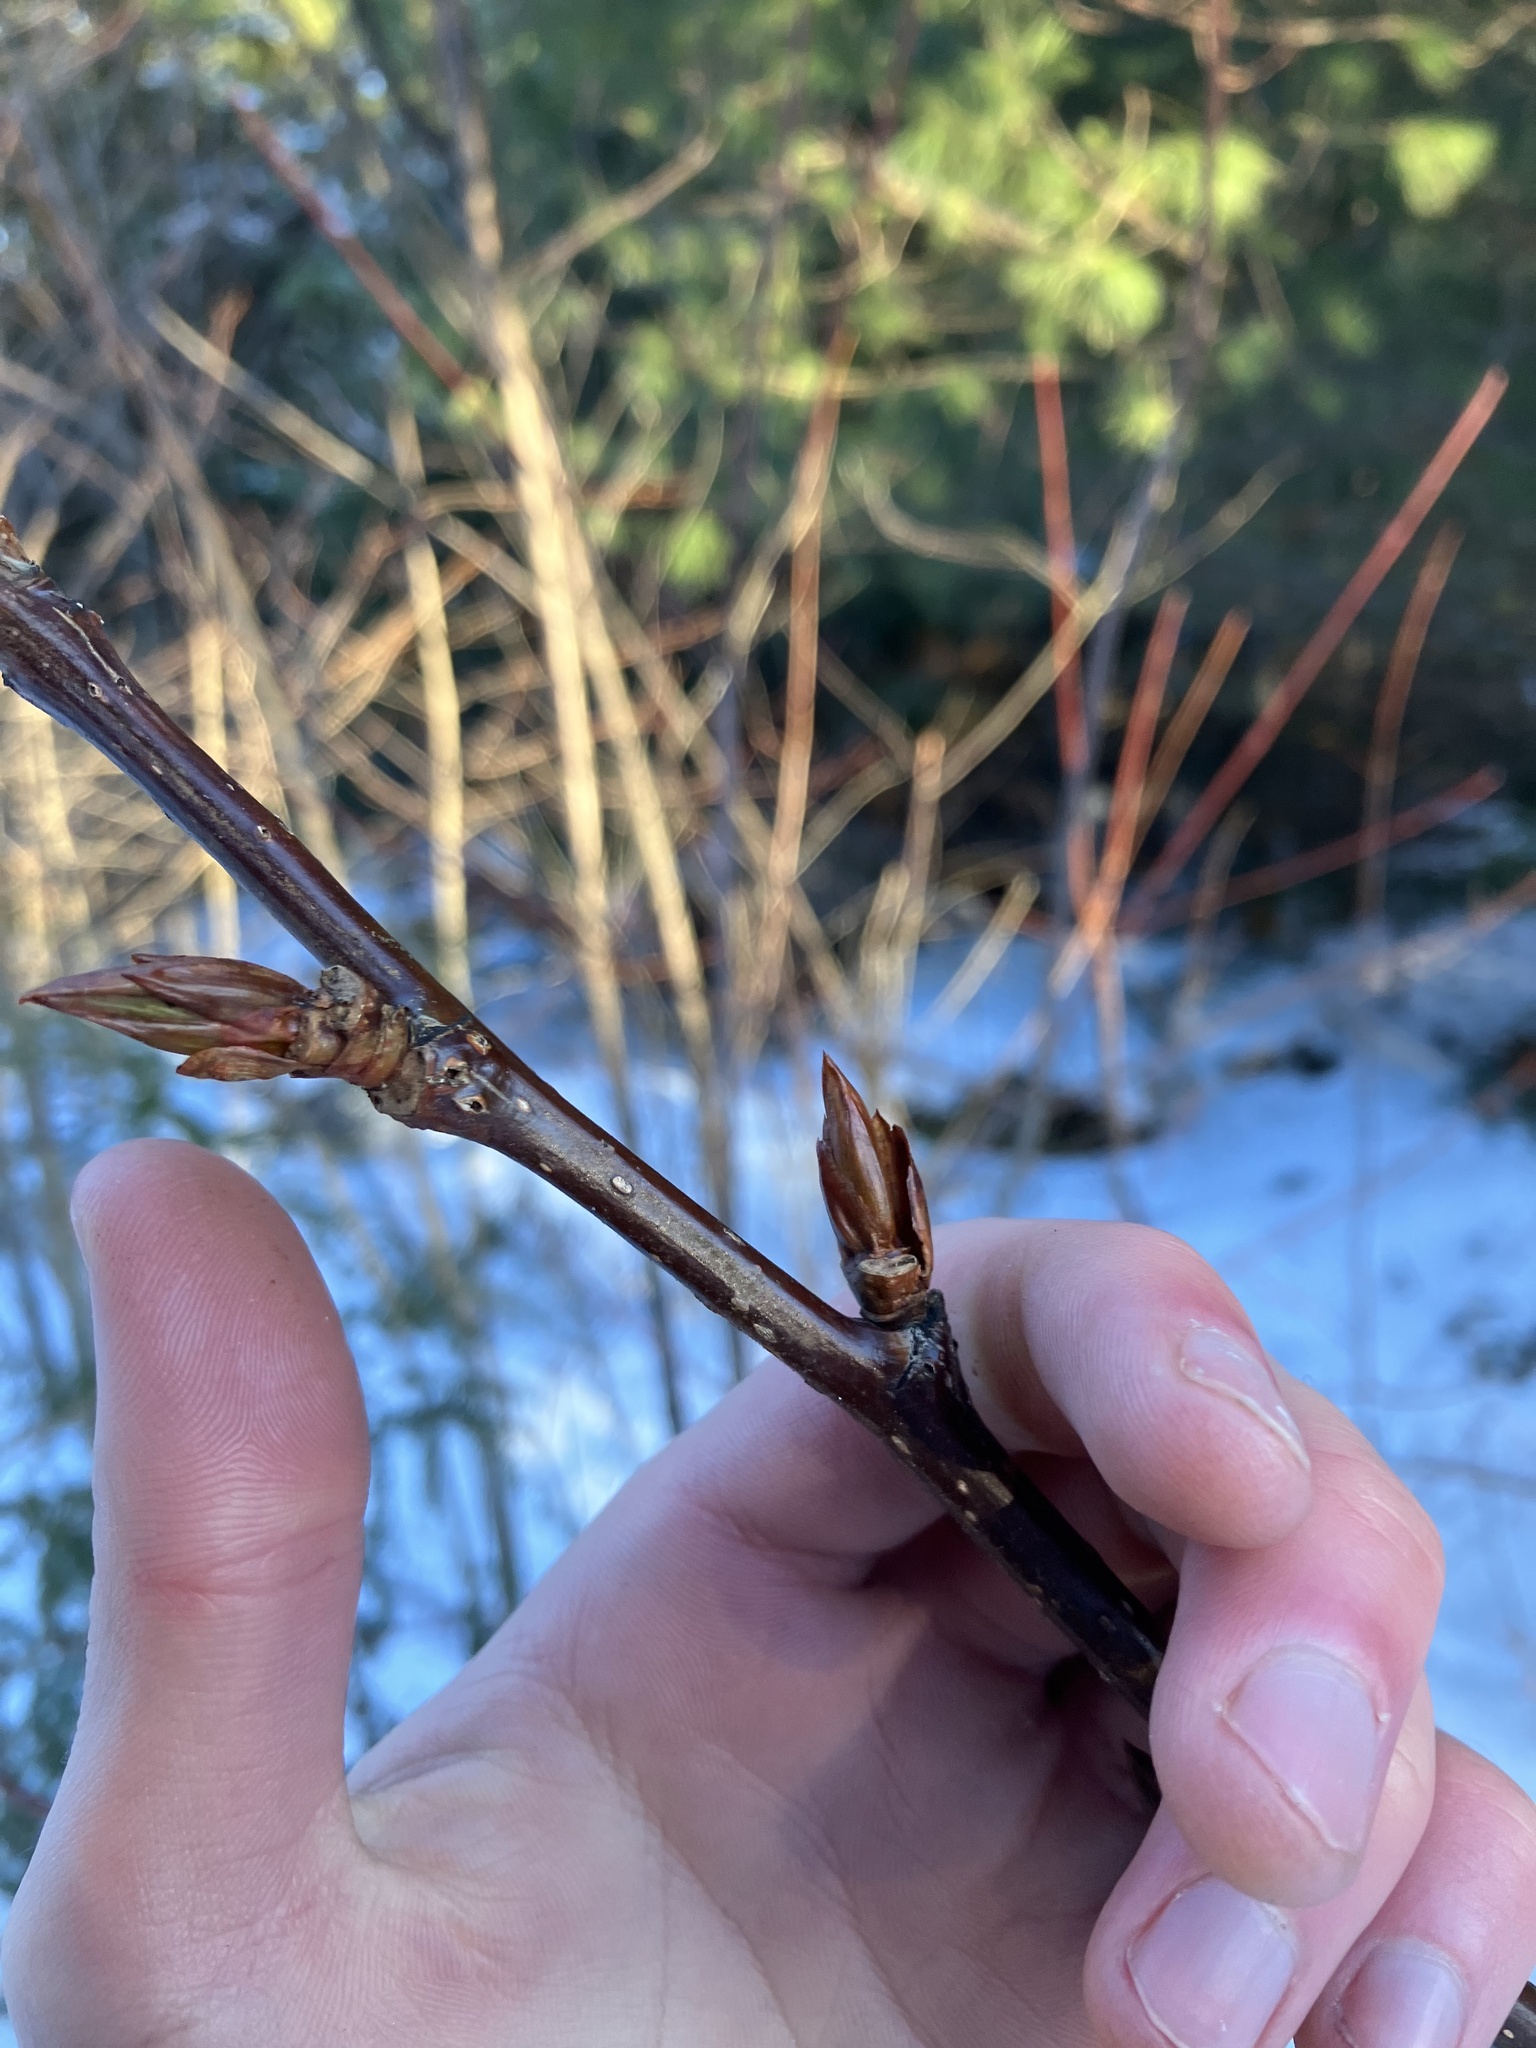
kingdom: Plantae
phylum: Tracheophyta
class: Magnoliopsida
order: Malpighiales
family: Salicaceae
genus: Populus
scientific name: Populus balsamifera
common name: Balsam poplar
